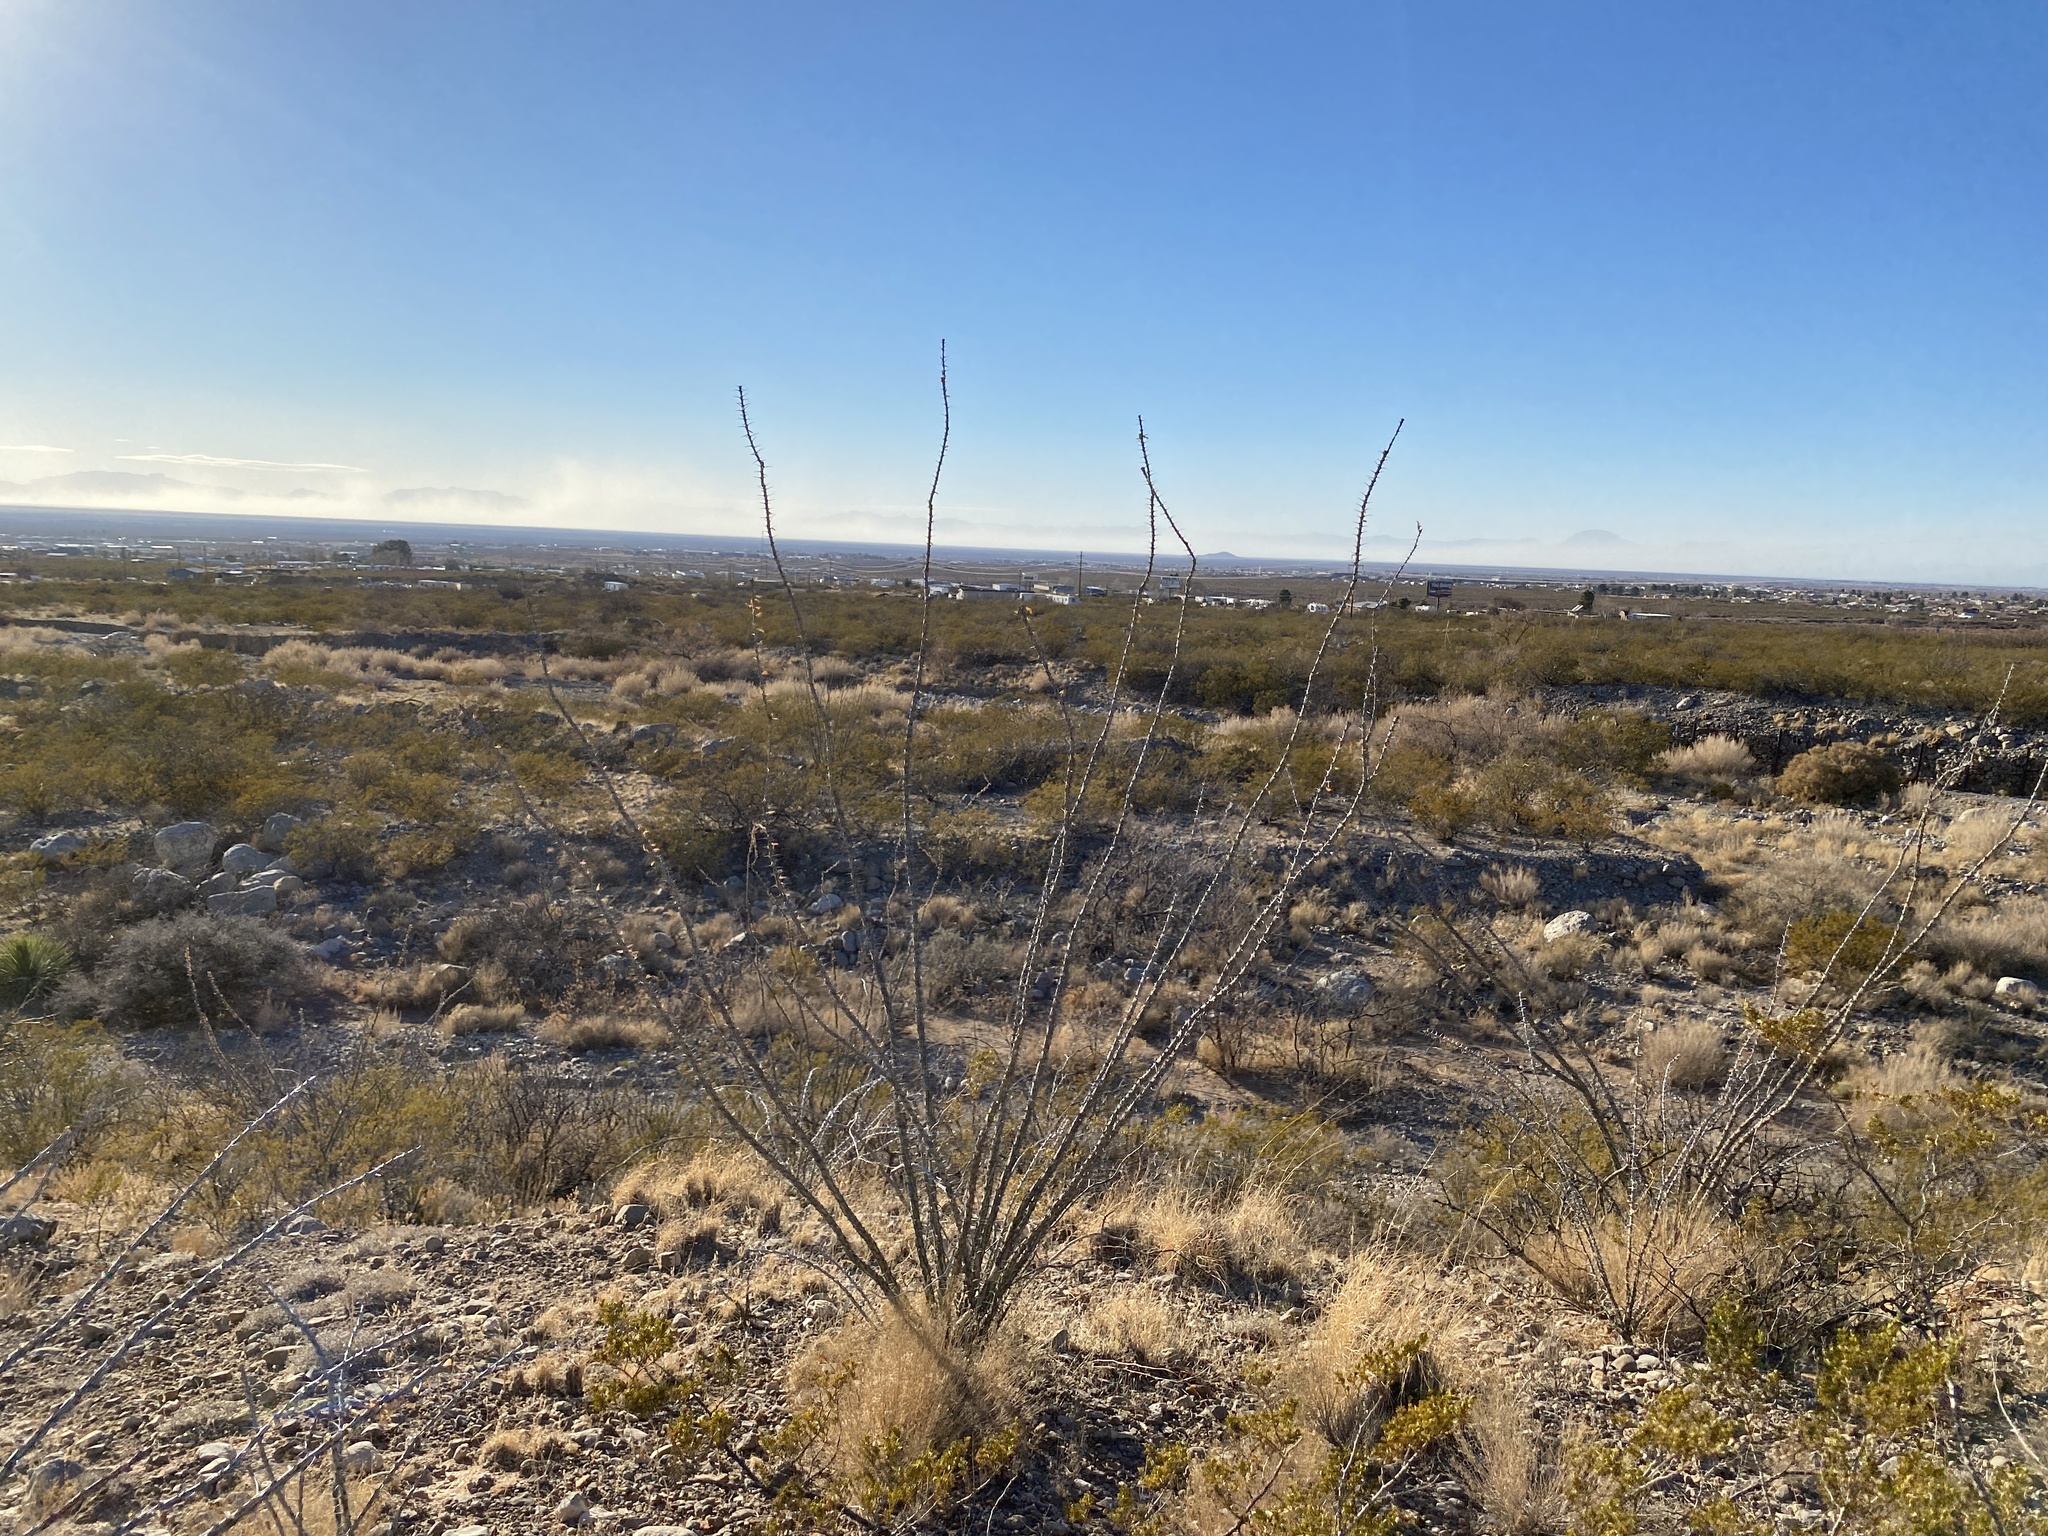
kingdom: Plantae
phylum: Tracheophyta
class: Magnoliopsida
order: Ericales
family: Fouquieriaceae
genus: Fouquieria
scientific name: Fouquieria splendens
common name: Vine-cactus
